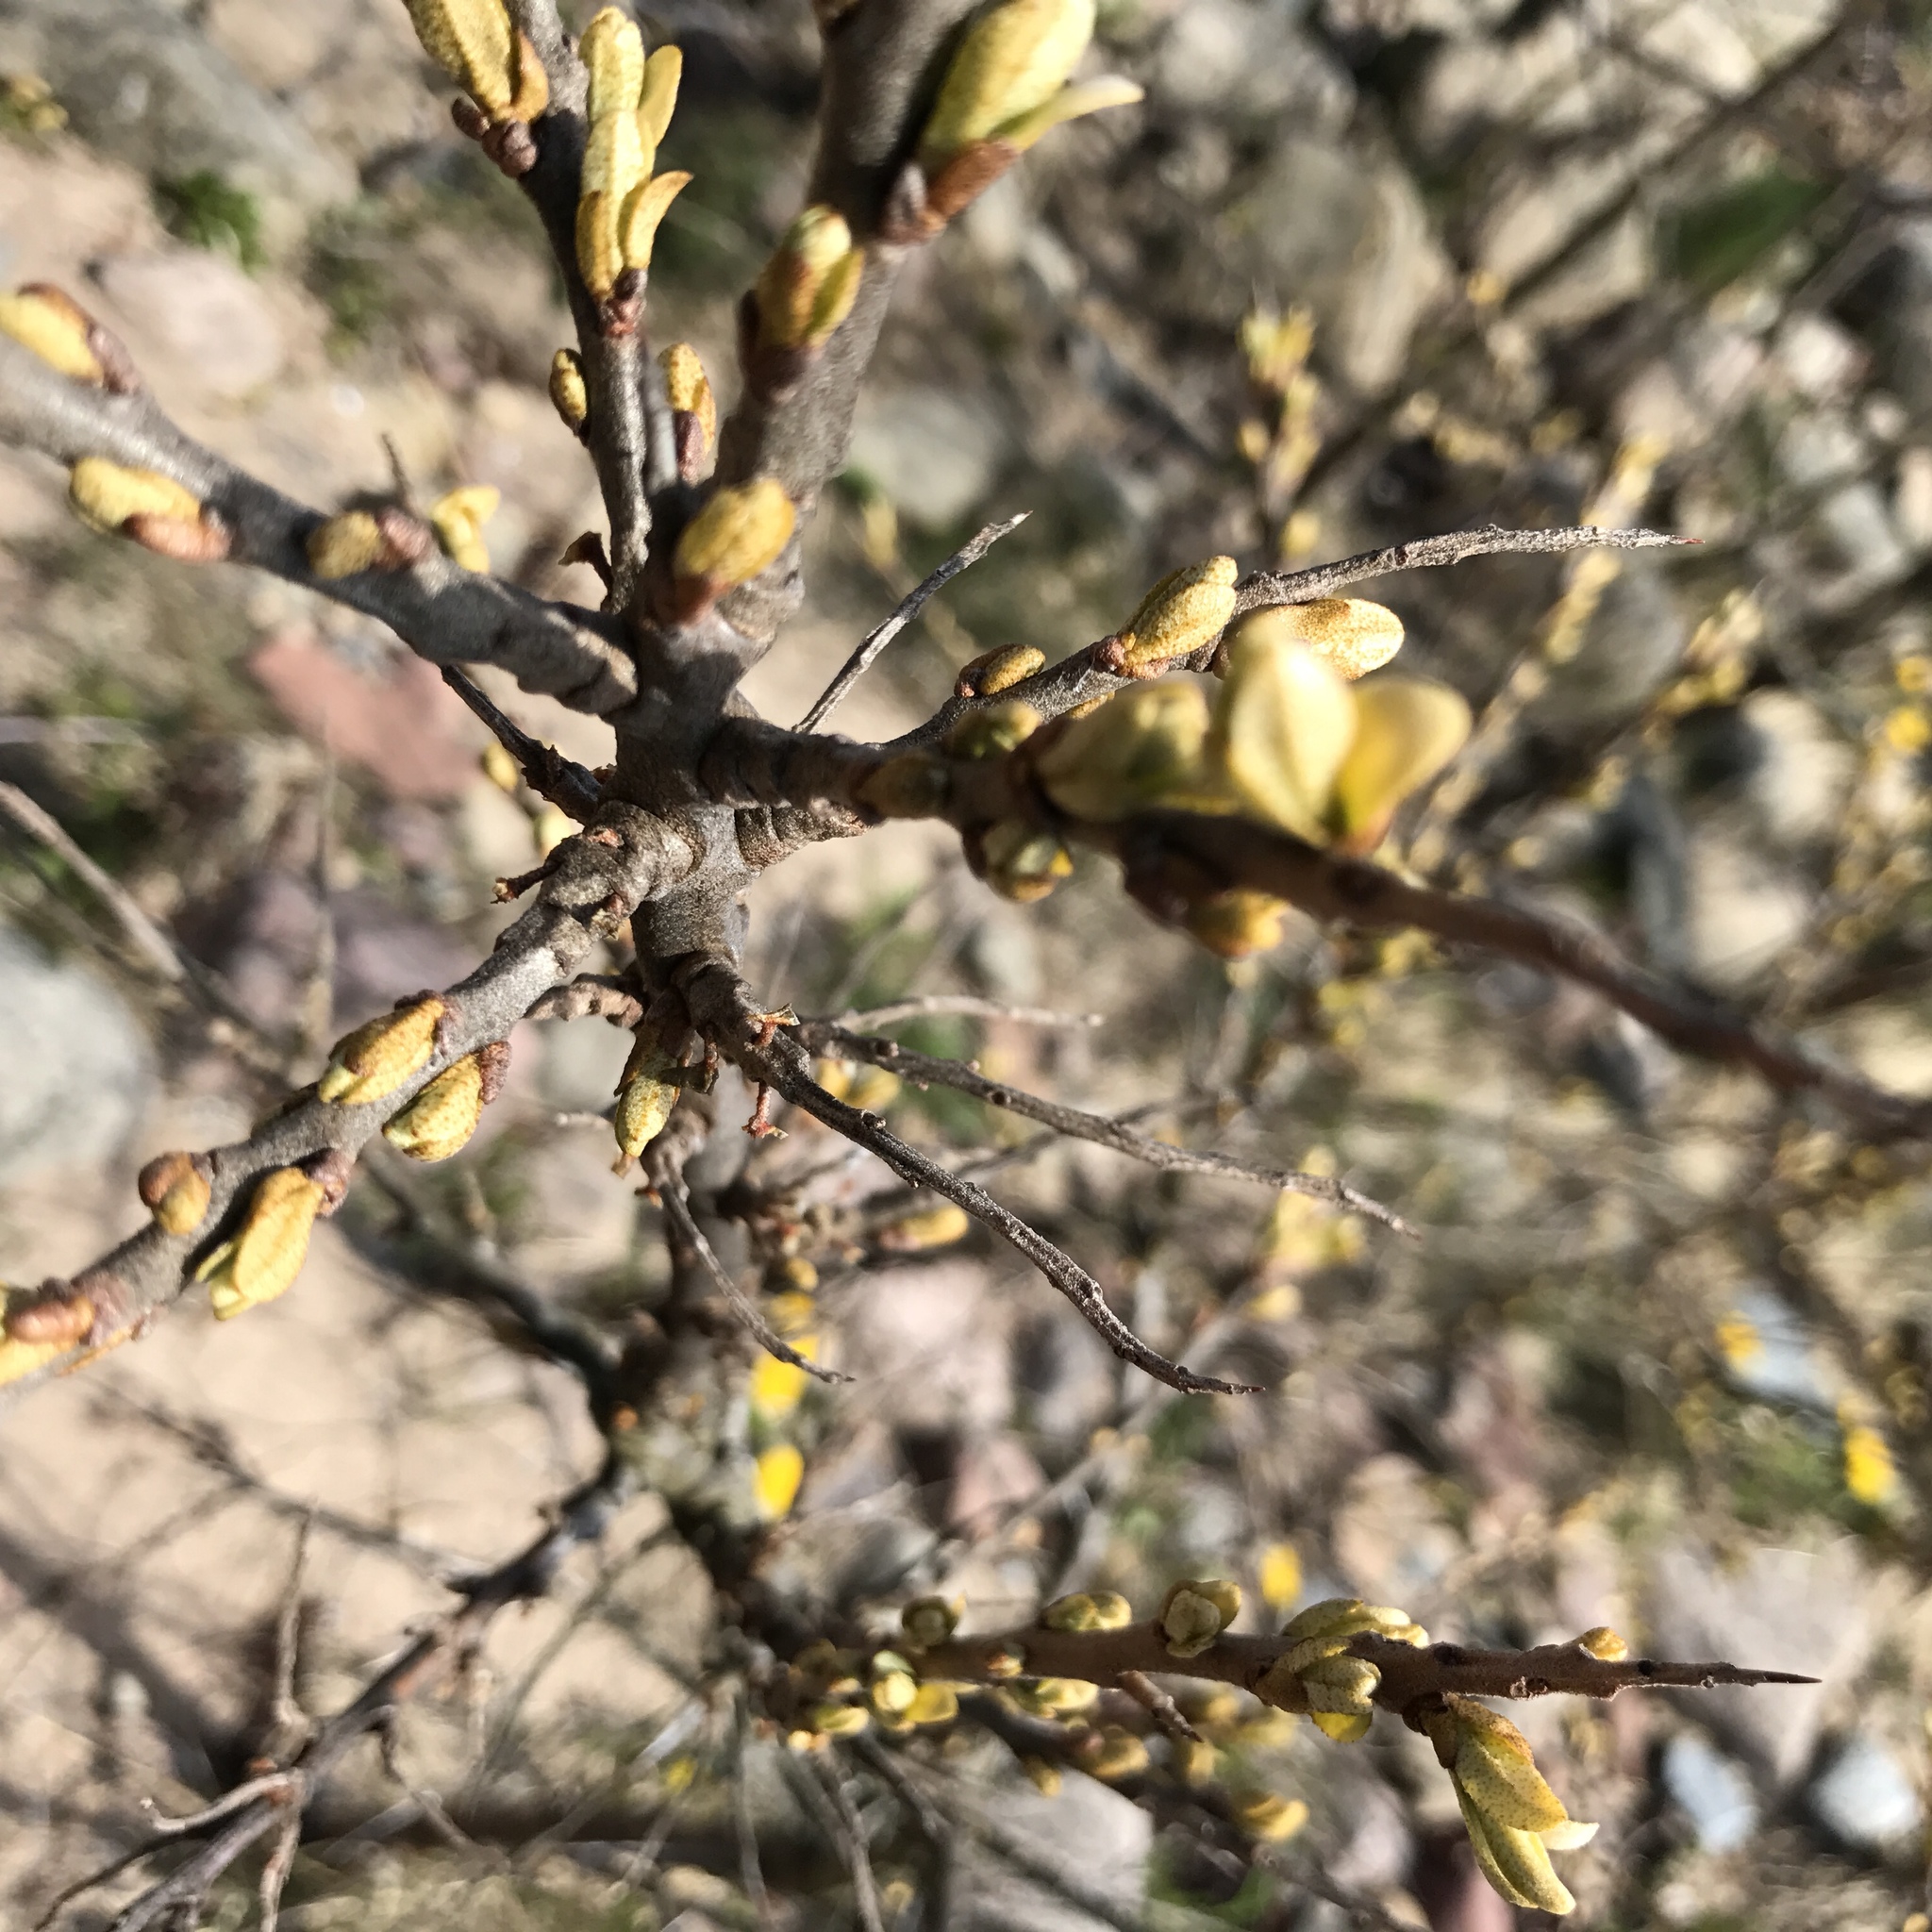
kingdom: Plantae
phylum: Tracheophyta
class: Magnoliopsida
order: Rosales
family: Elaeagnaceae
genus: Hippophae
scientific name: Hippophae rhamnoides
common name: Sea-buckthorn
